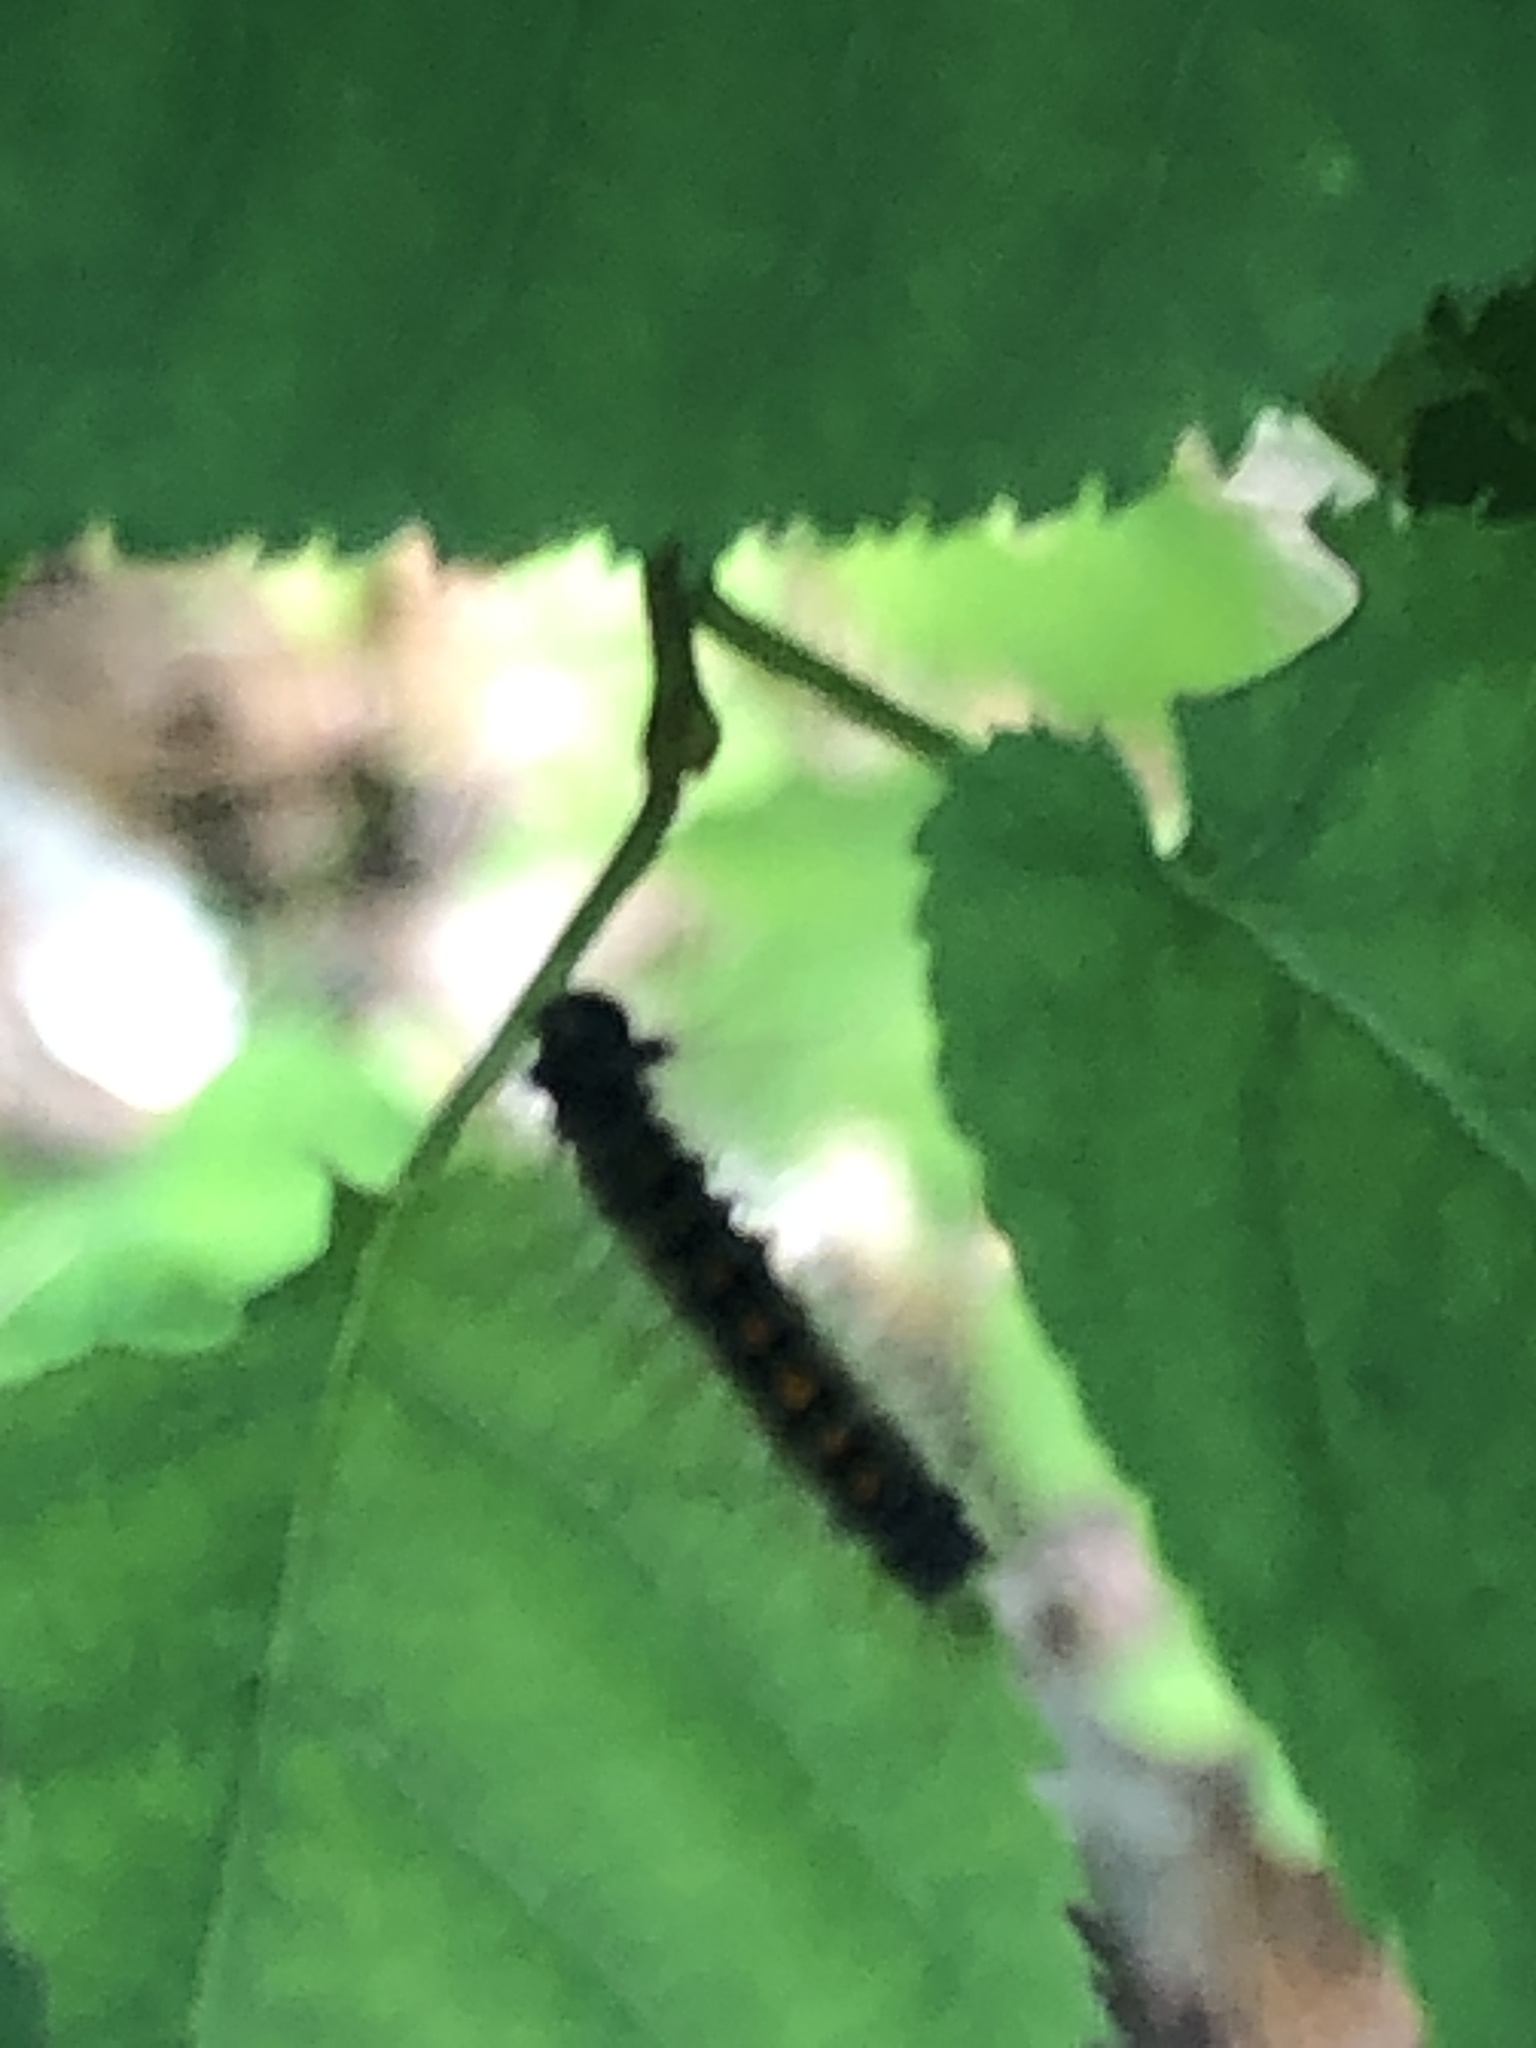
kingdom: Animalia
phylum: Arthropoda
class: Insecta
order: Lepidoptera
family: Erebidae
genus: Lymantria
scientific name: Lymantria dispar
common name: Gypsy moth
